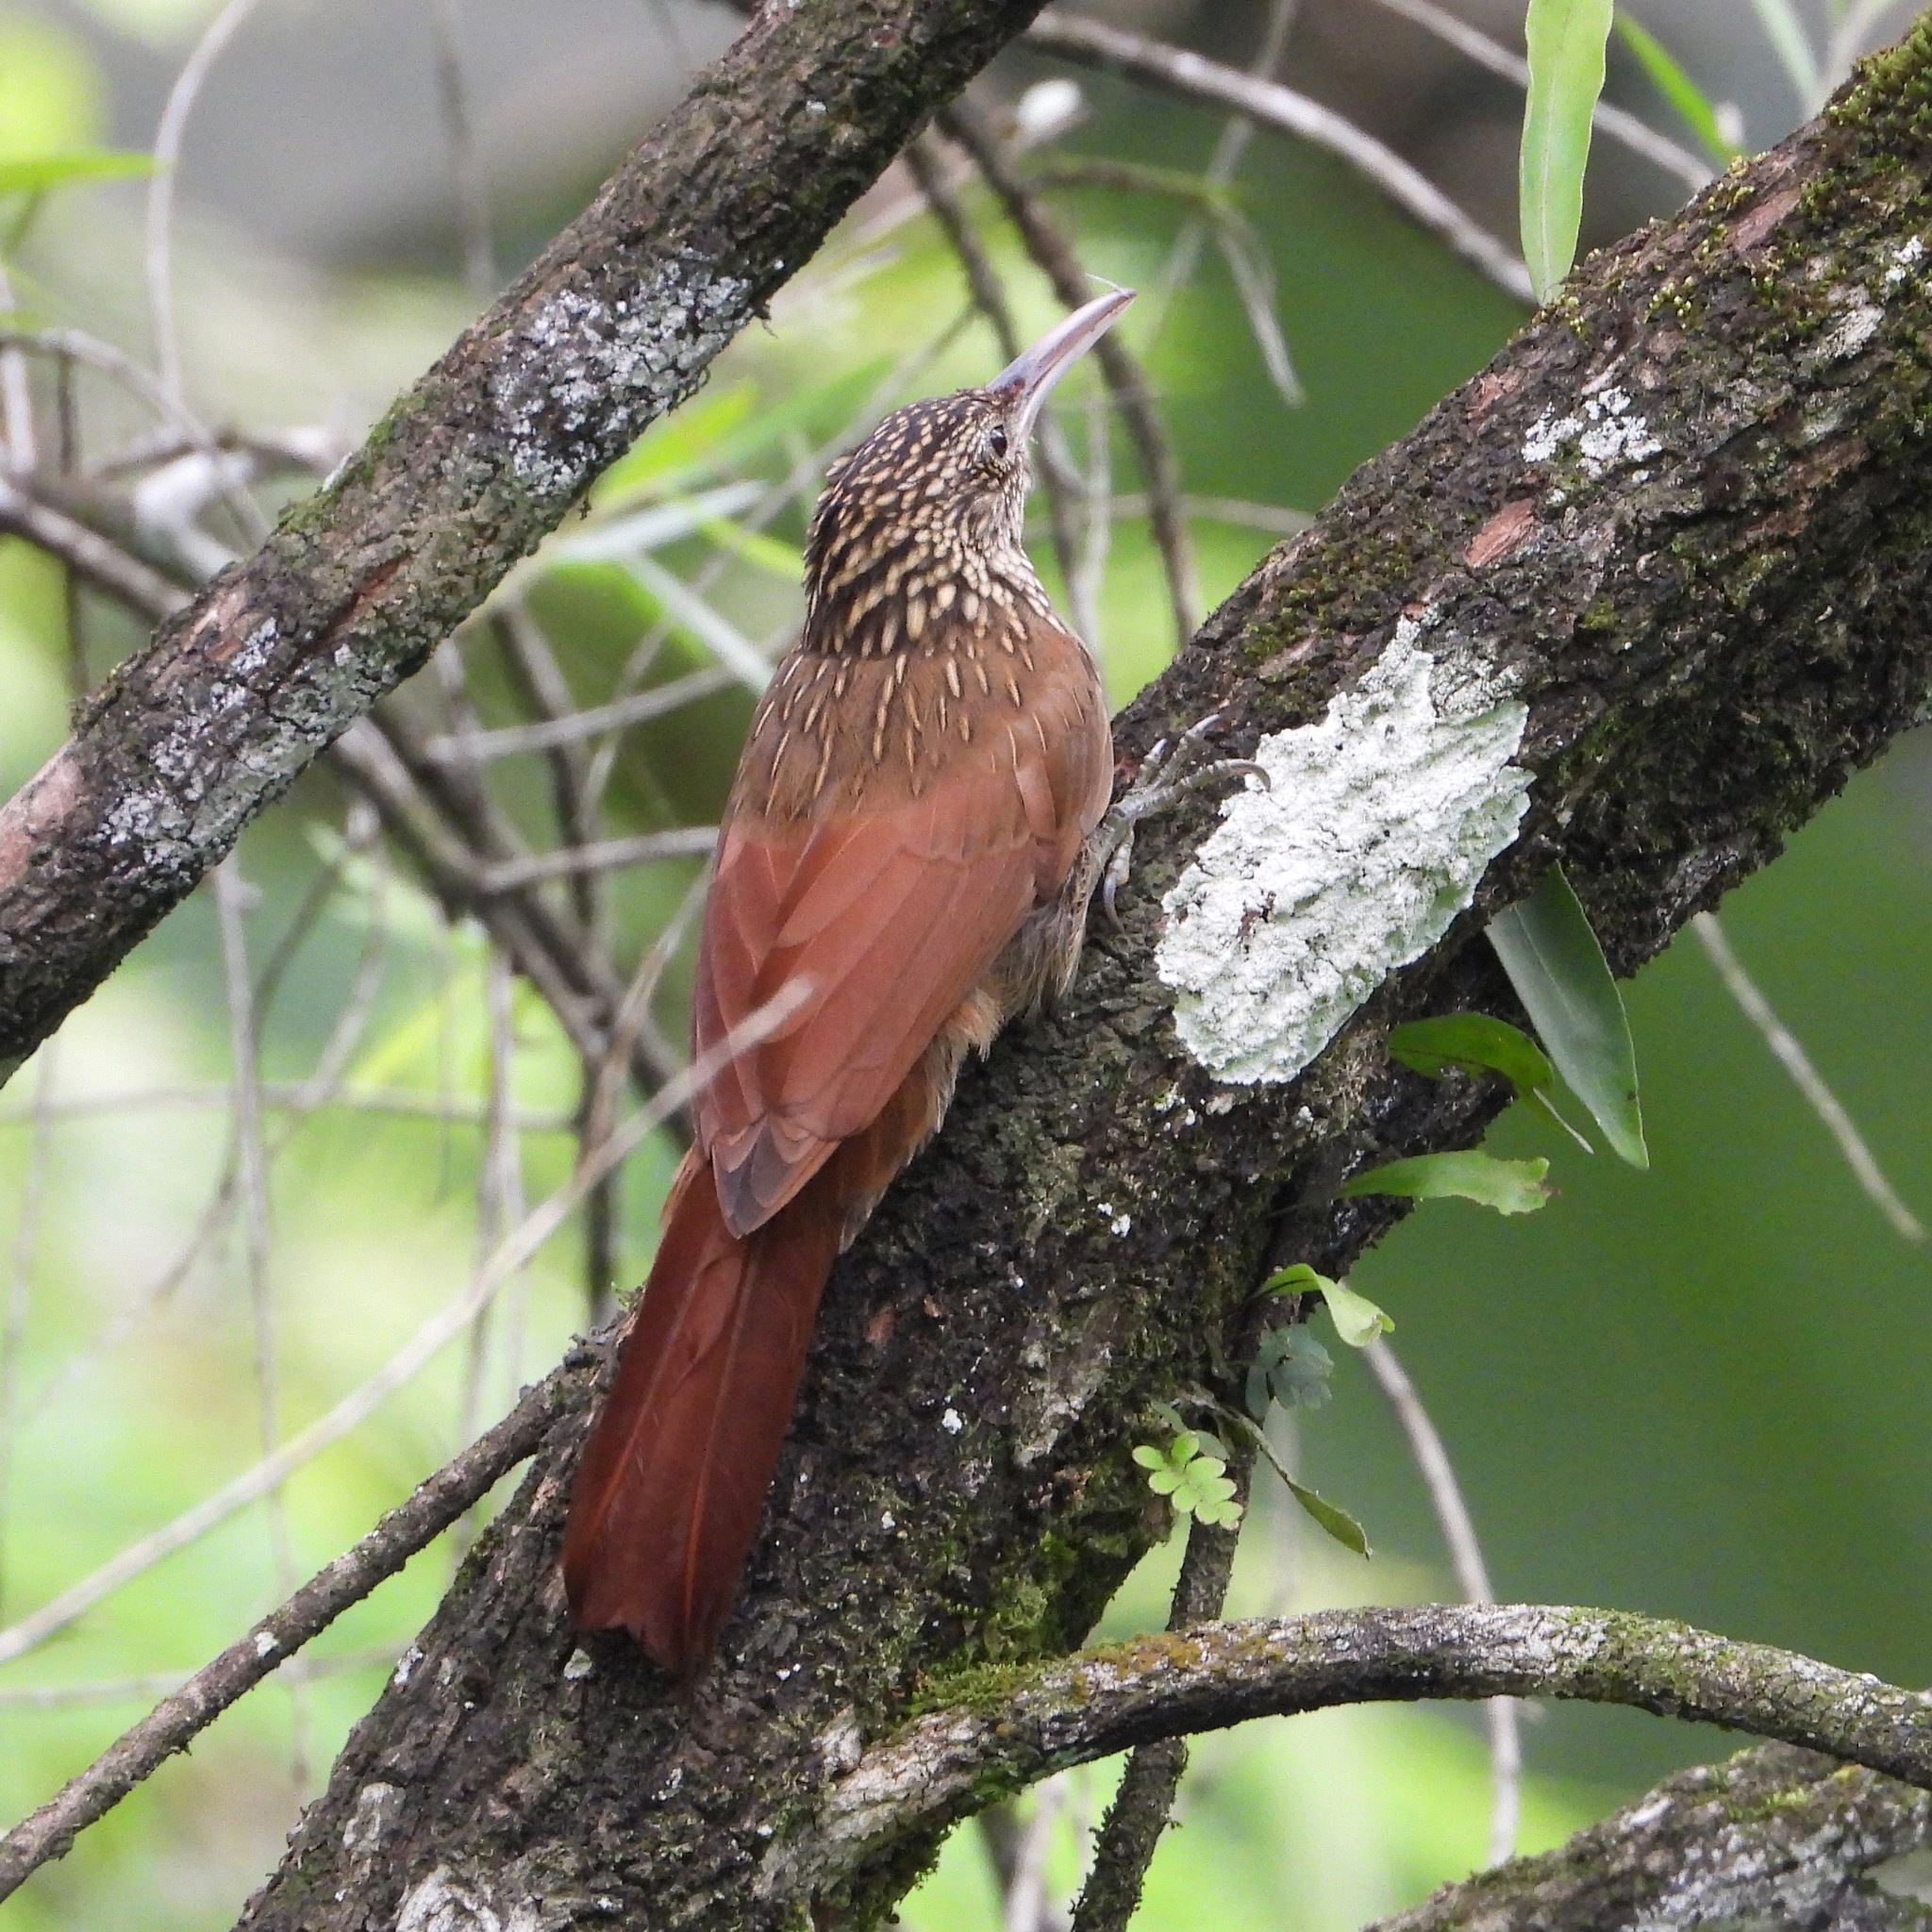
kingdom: Animalia
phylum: Chordata
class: Aves
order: Passeriformes
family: Furnariidae
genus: Xiphorhynchus
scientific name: Xiphorhynchus flavigaster
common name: Ivory-billed woodcreeper
